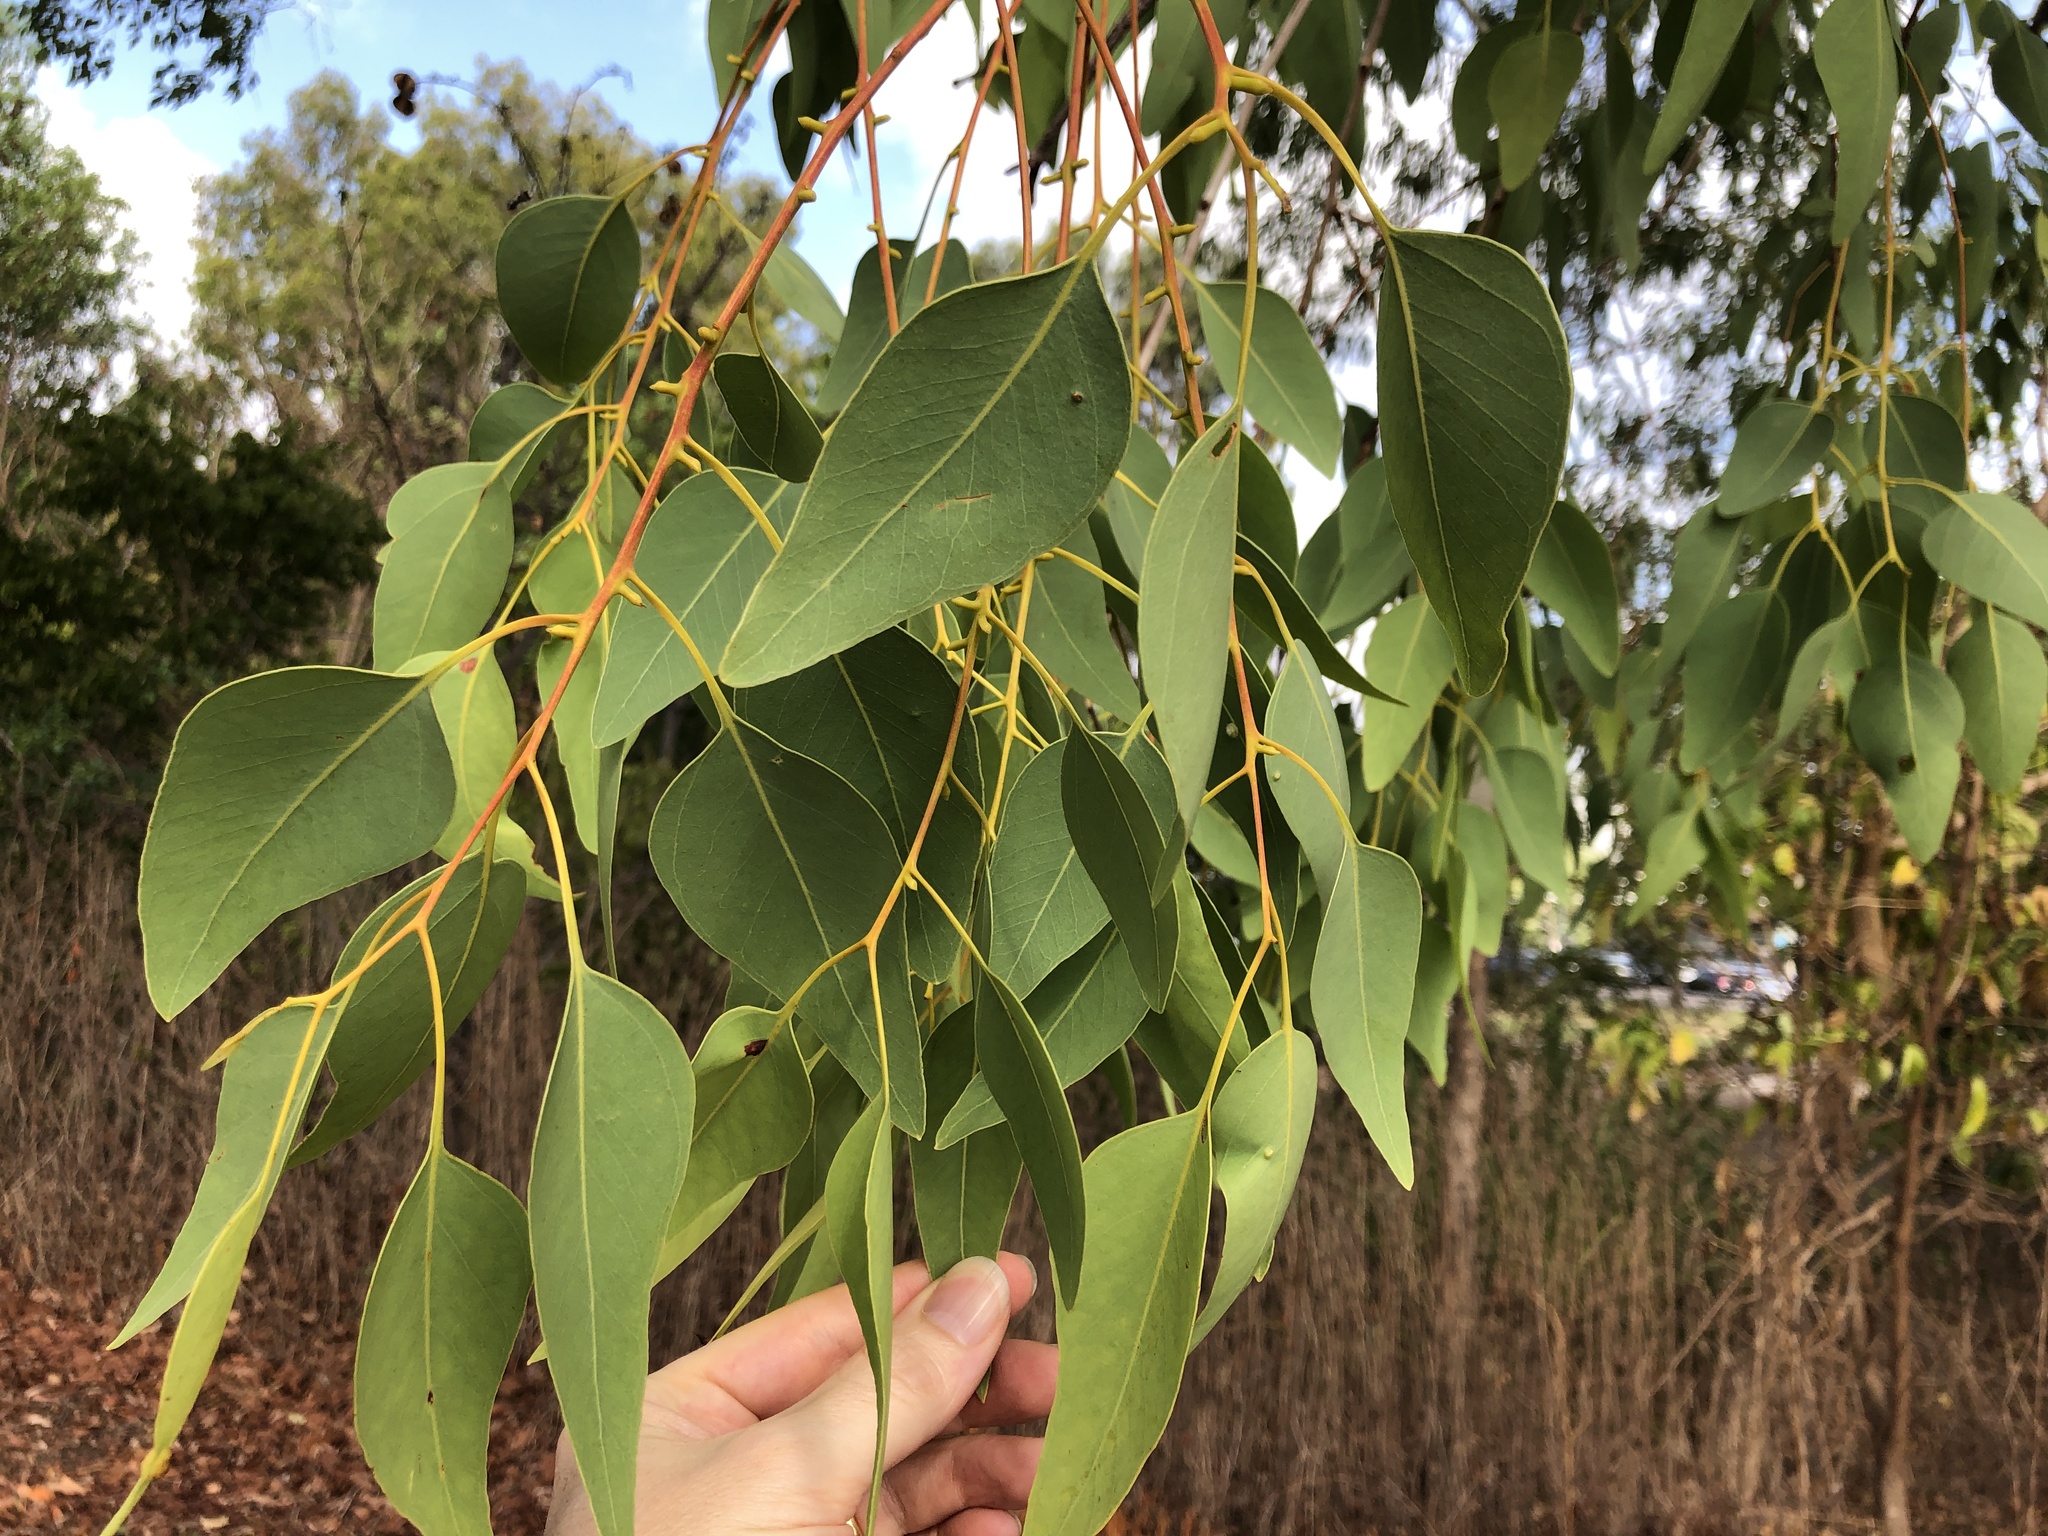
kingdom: Plantae
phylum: Tracheophyta
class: Magnoliopsida
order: Myrtales
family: Myrtaceae
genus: Eucalyptus
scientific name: Eucalyptus platyphylla
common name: Poplar-gum
